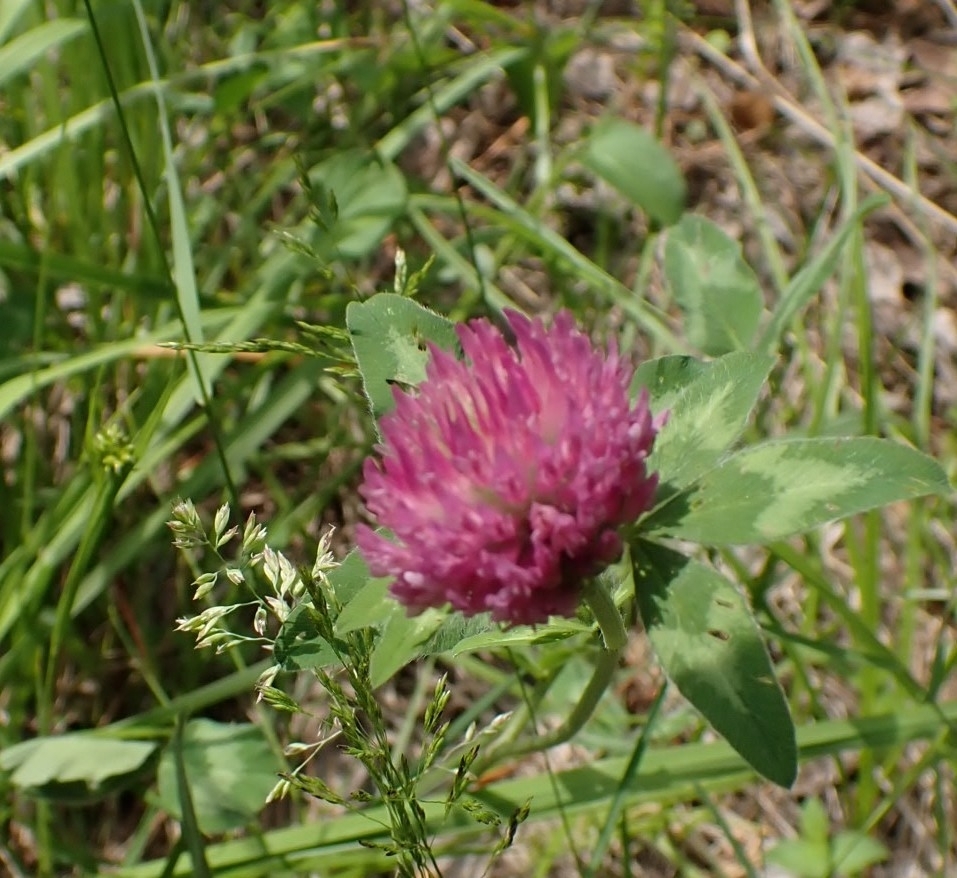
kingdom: Plantae
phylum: Tracheophyta
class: Magnoliopsida
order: Fabales
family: Fabaceae
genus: Trifolium
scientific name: Trifolium pratense
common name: Red clover
